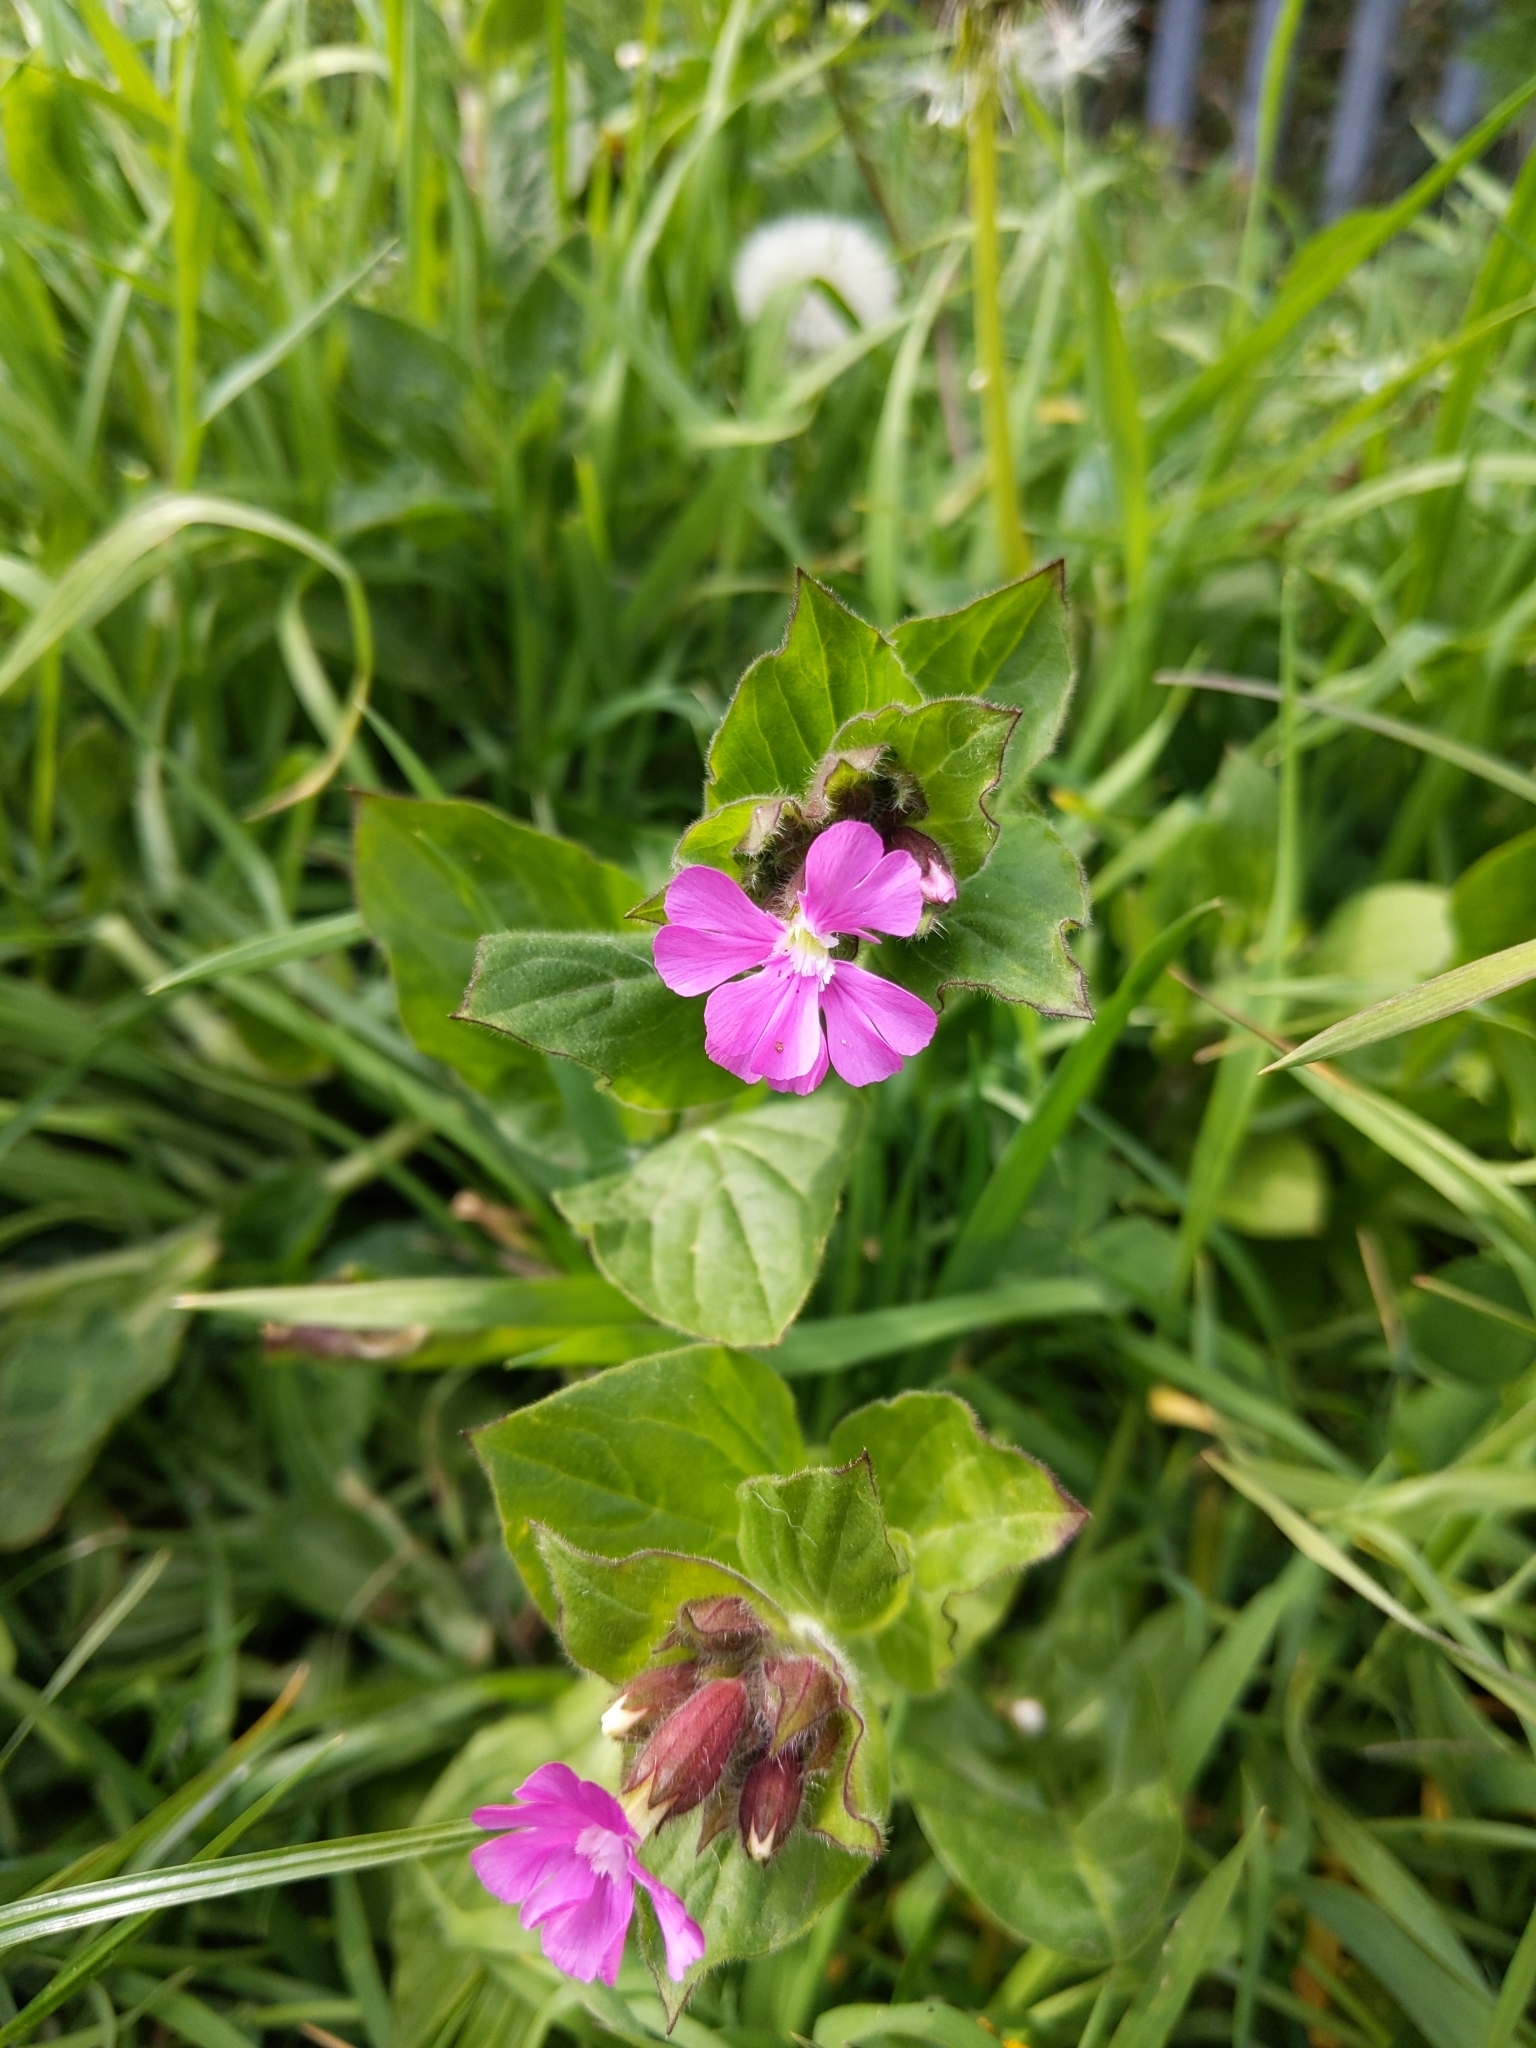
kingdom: Plantae
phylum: Tracheophyta
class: Magnoliopsida
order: Caryophyllales
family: Caryophyllaceae
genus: Silene
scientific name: Silene dioica
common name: Red campion
